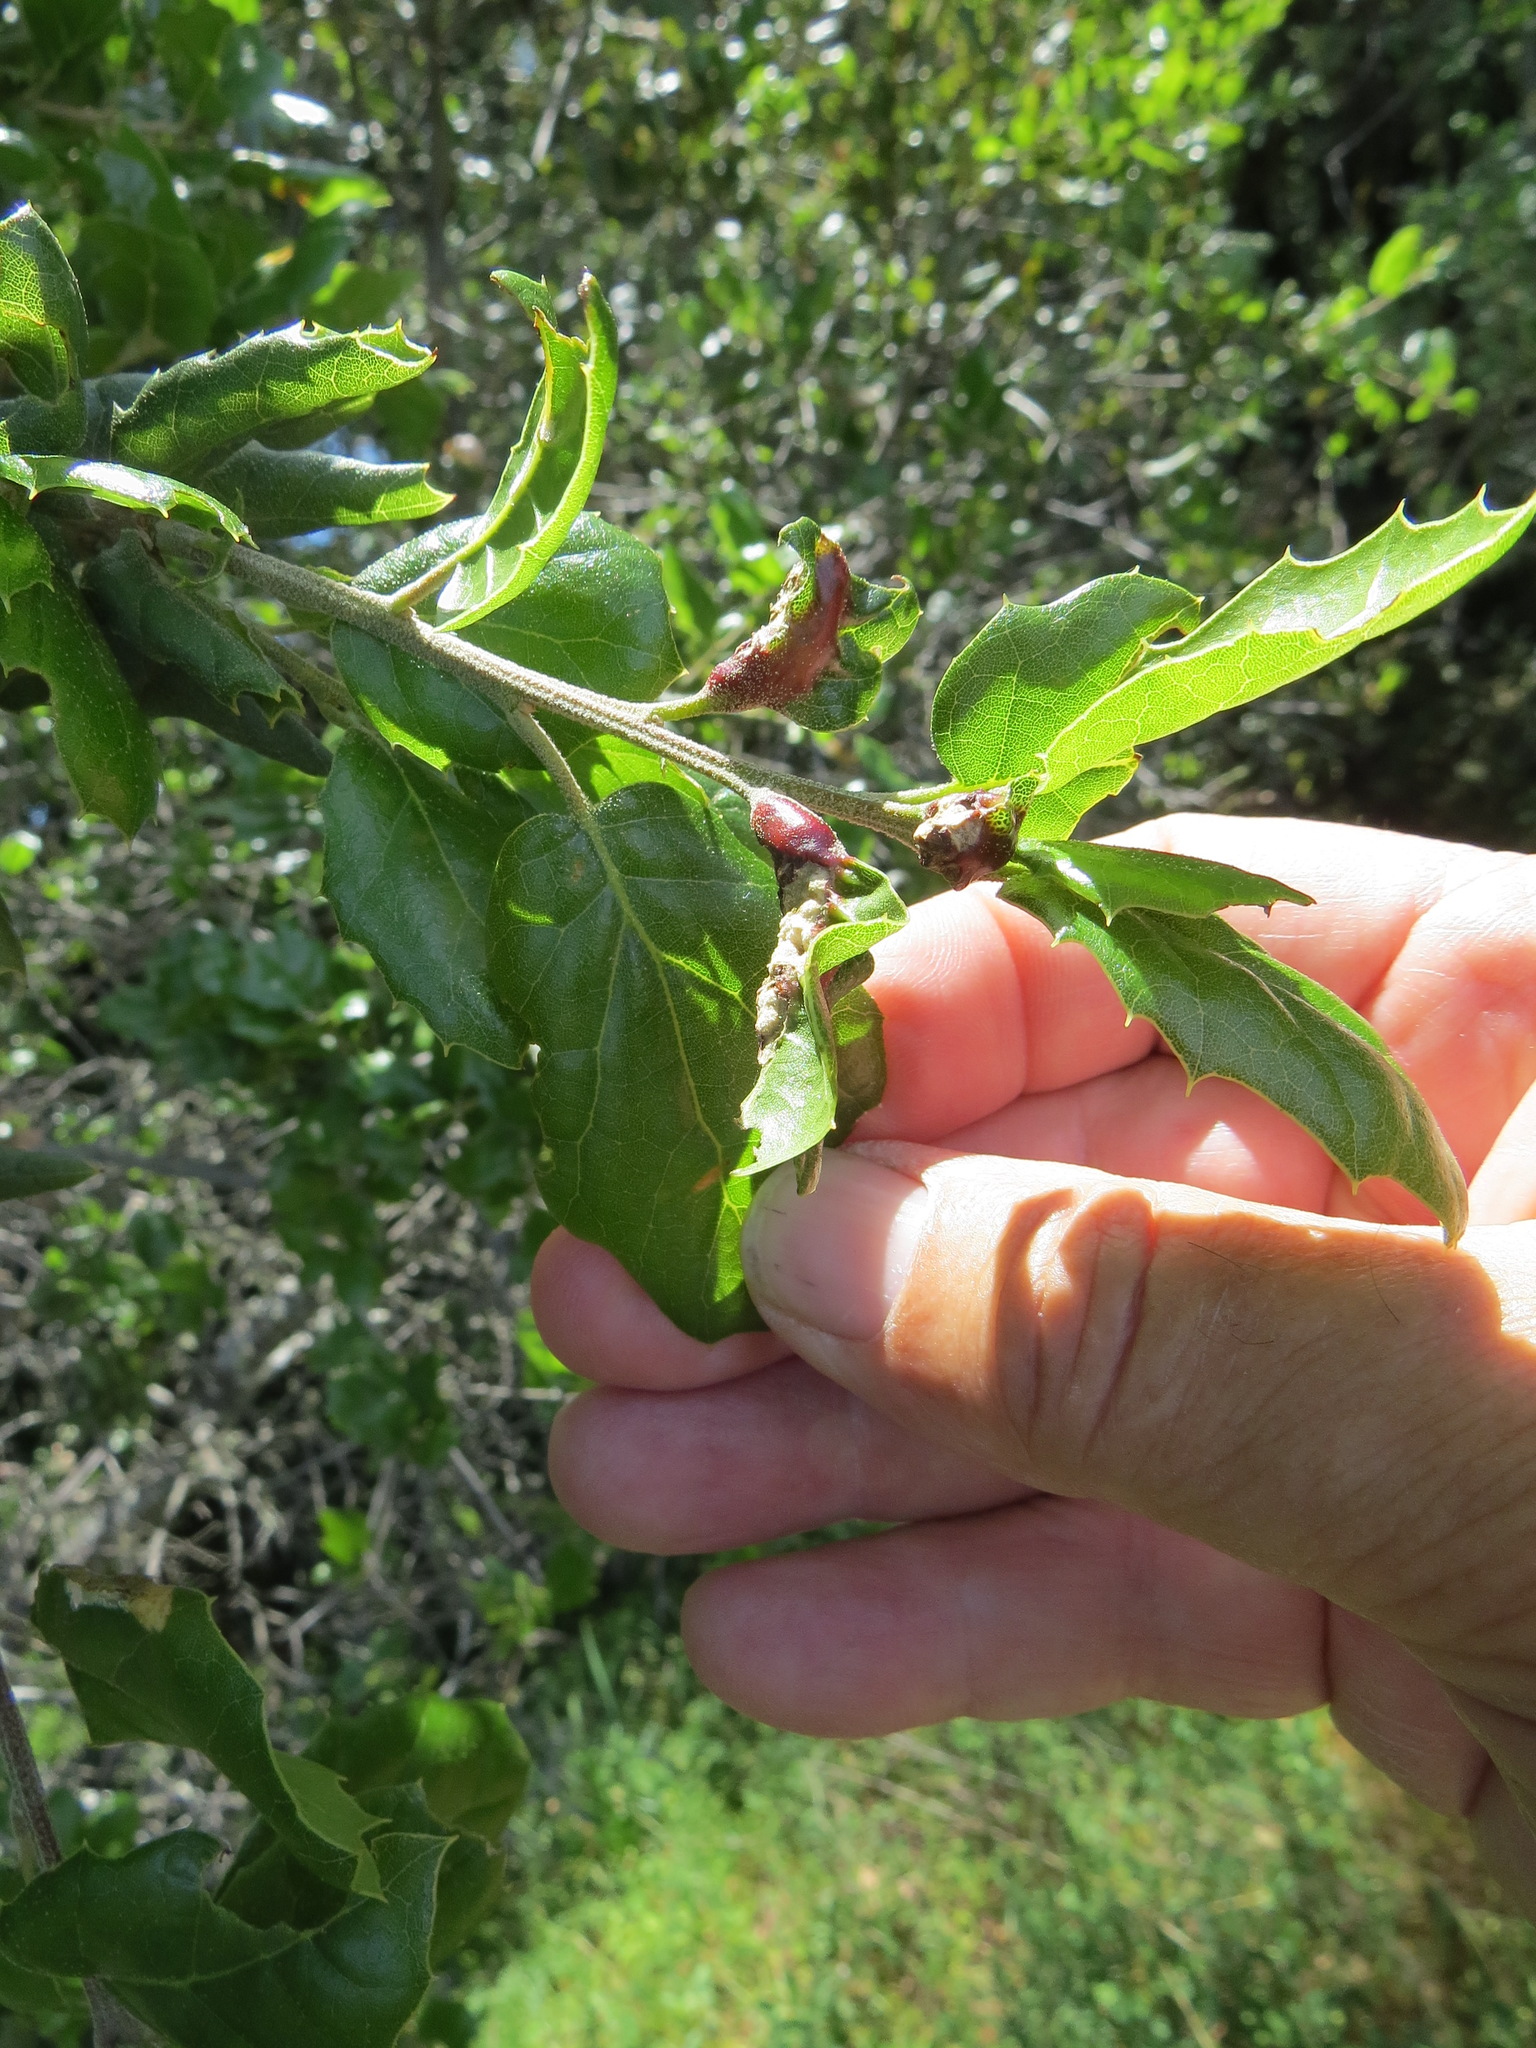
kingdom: Animalia
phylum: Arthropoda
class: Insecta
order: Hymenoptera
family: Cynipidae
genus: Melikaiella
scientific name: Melikaiella
